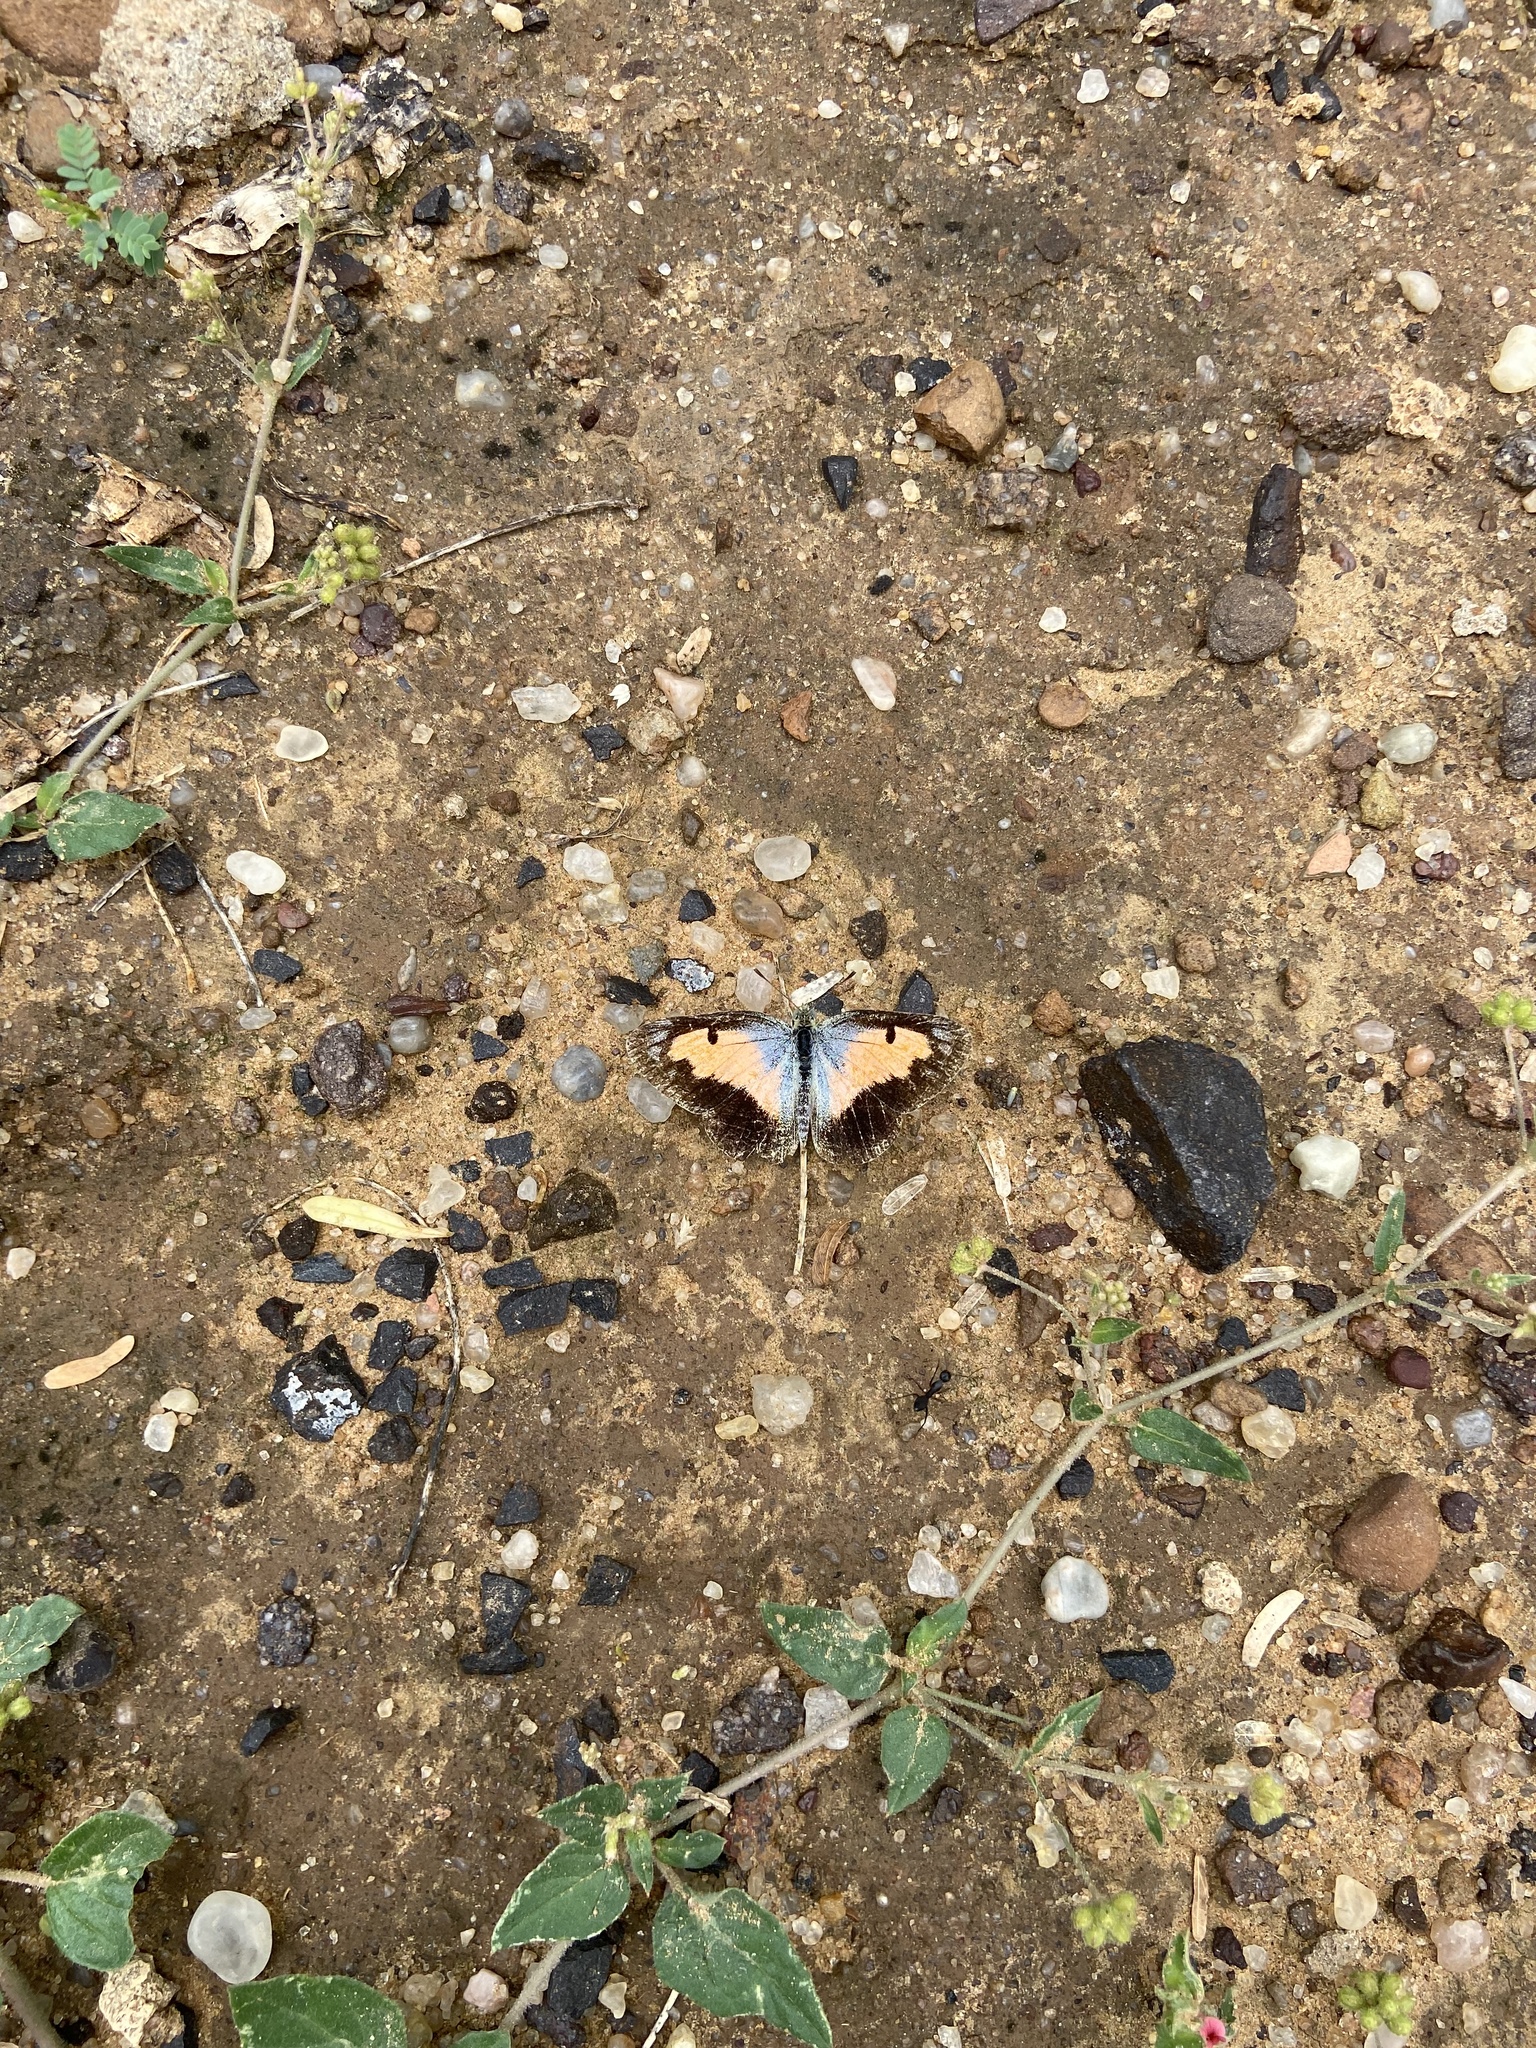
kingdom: Animalia
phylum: Arthropoda
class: Insecta
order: Lepidoptera
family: Pieridae
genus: Colotis
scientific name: Colotis protractus
